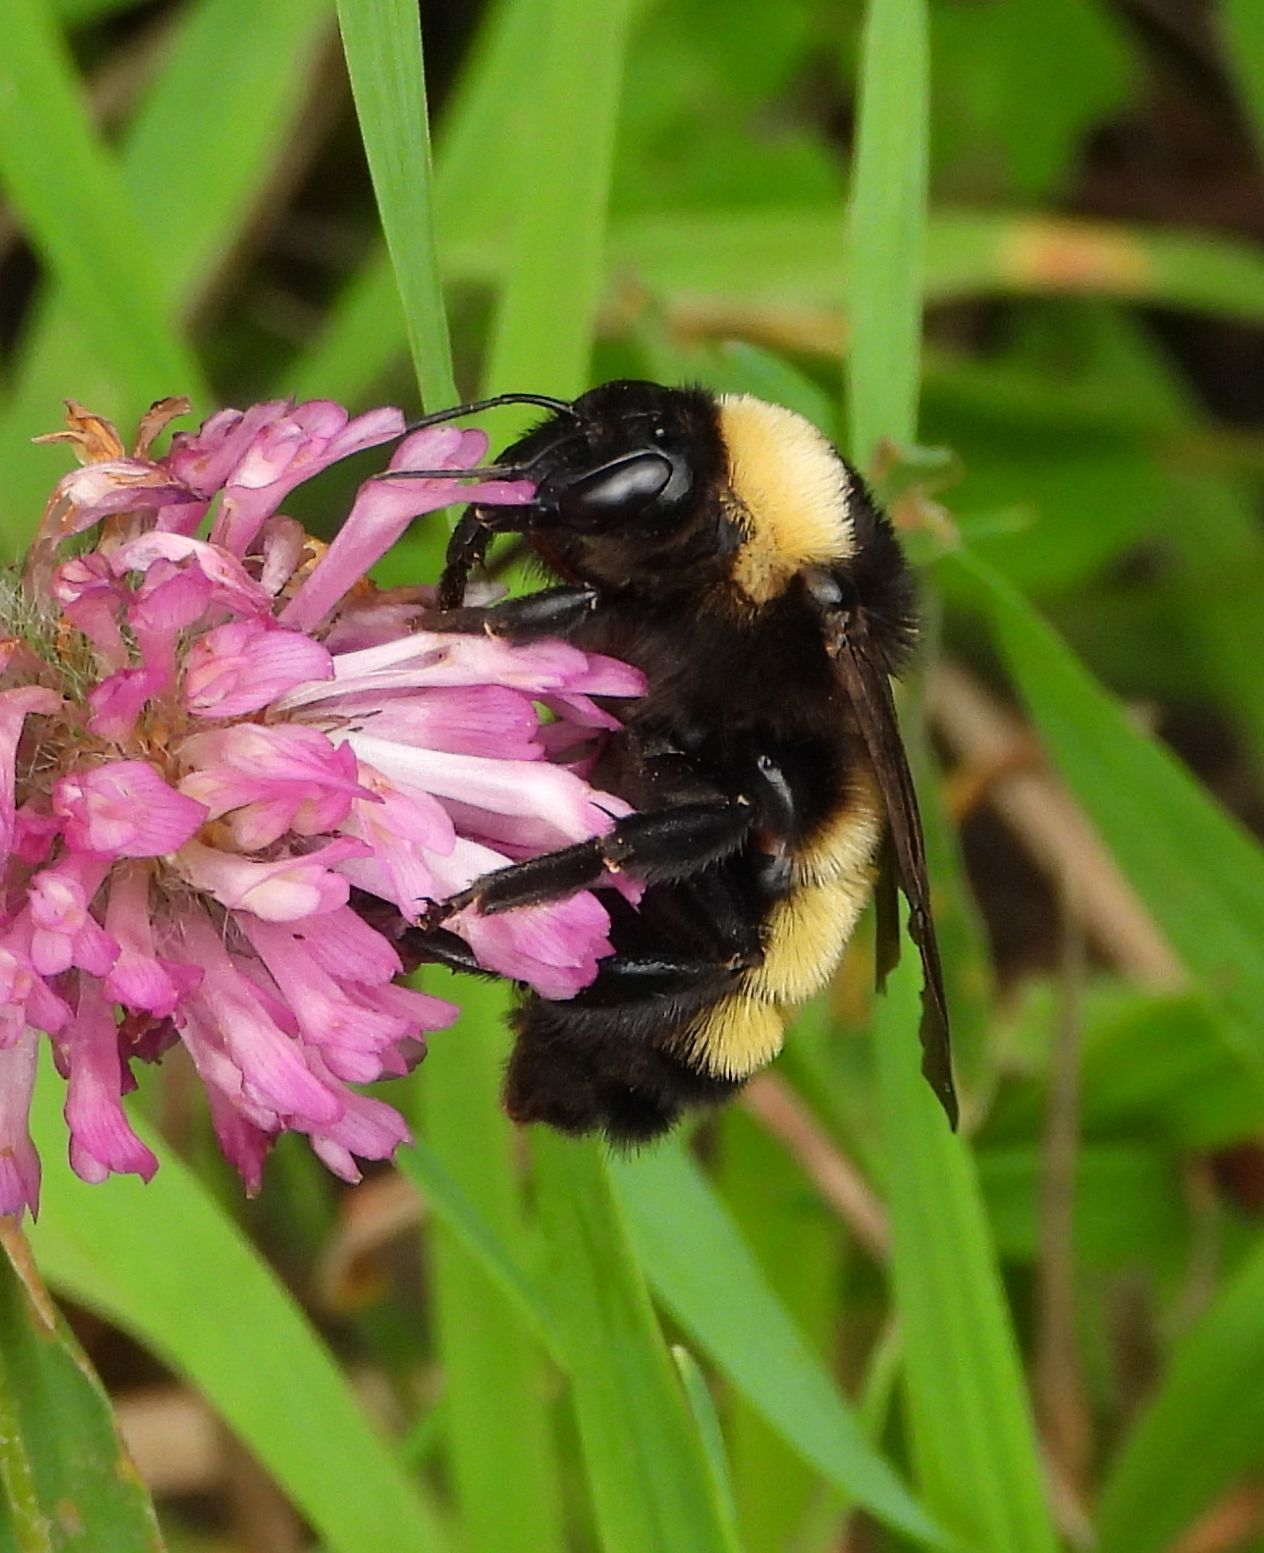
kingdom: Animalia
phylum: Arthropoda
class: Insecta
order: Hymenoptera
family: Apidae
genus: Bombus
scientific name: Bombus pensylvanicus
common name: Bumble bee
